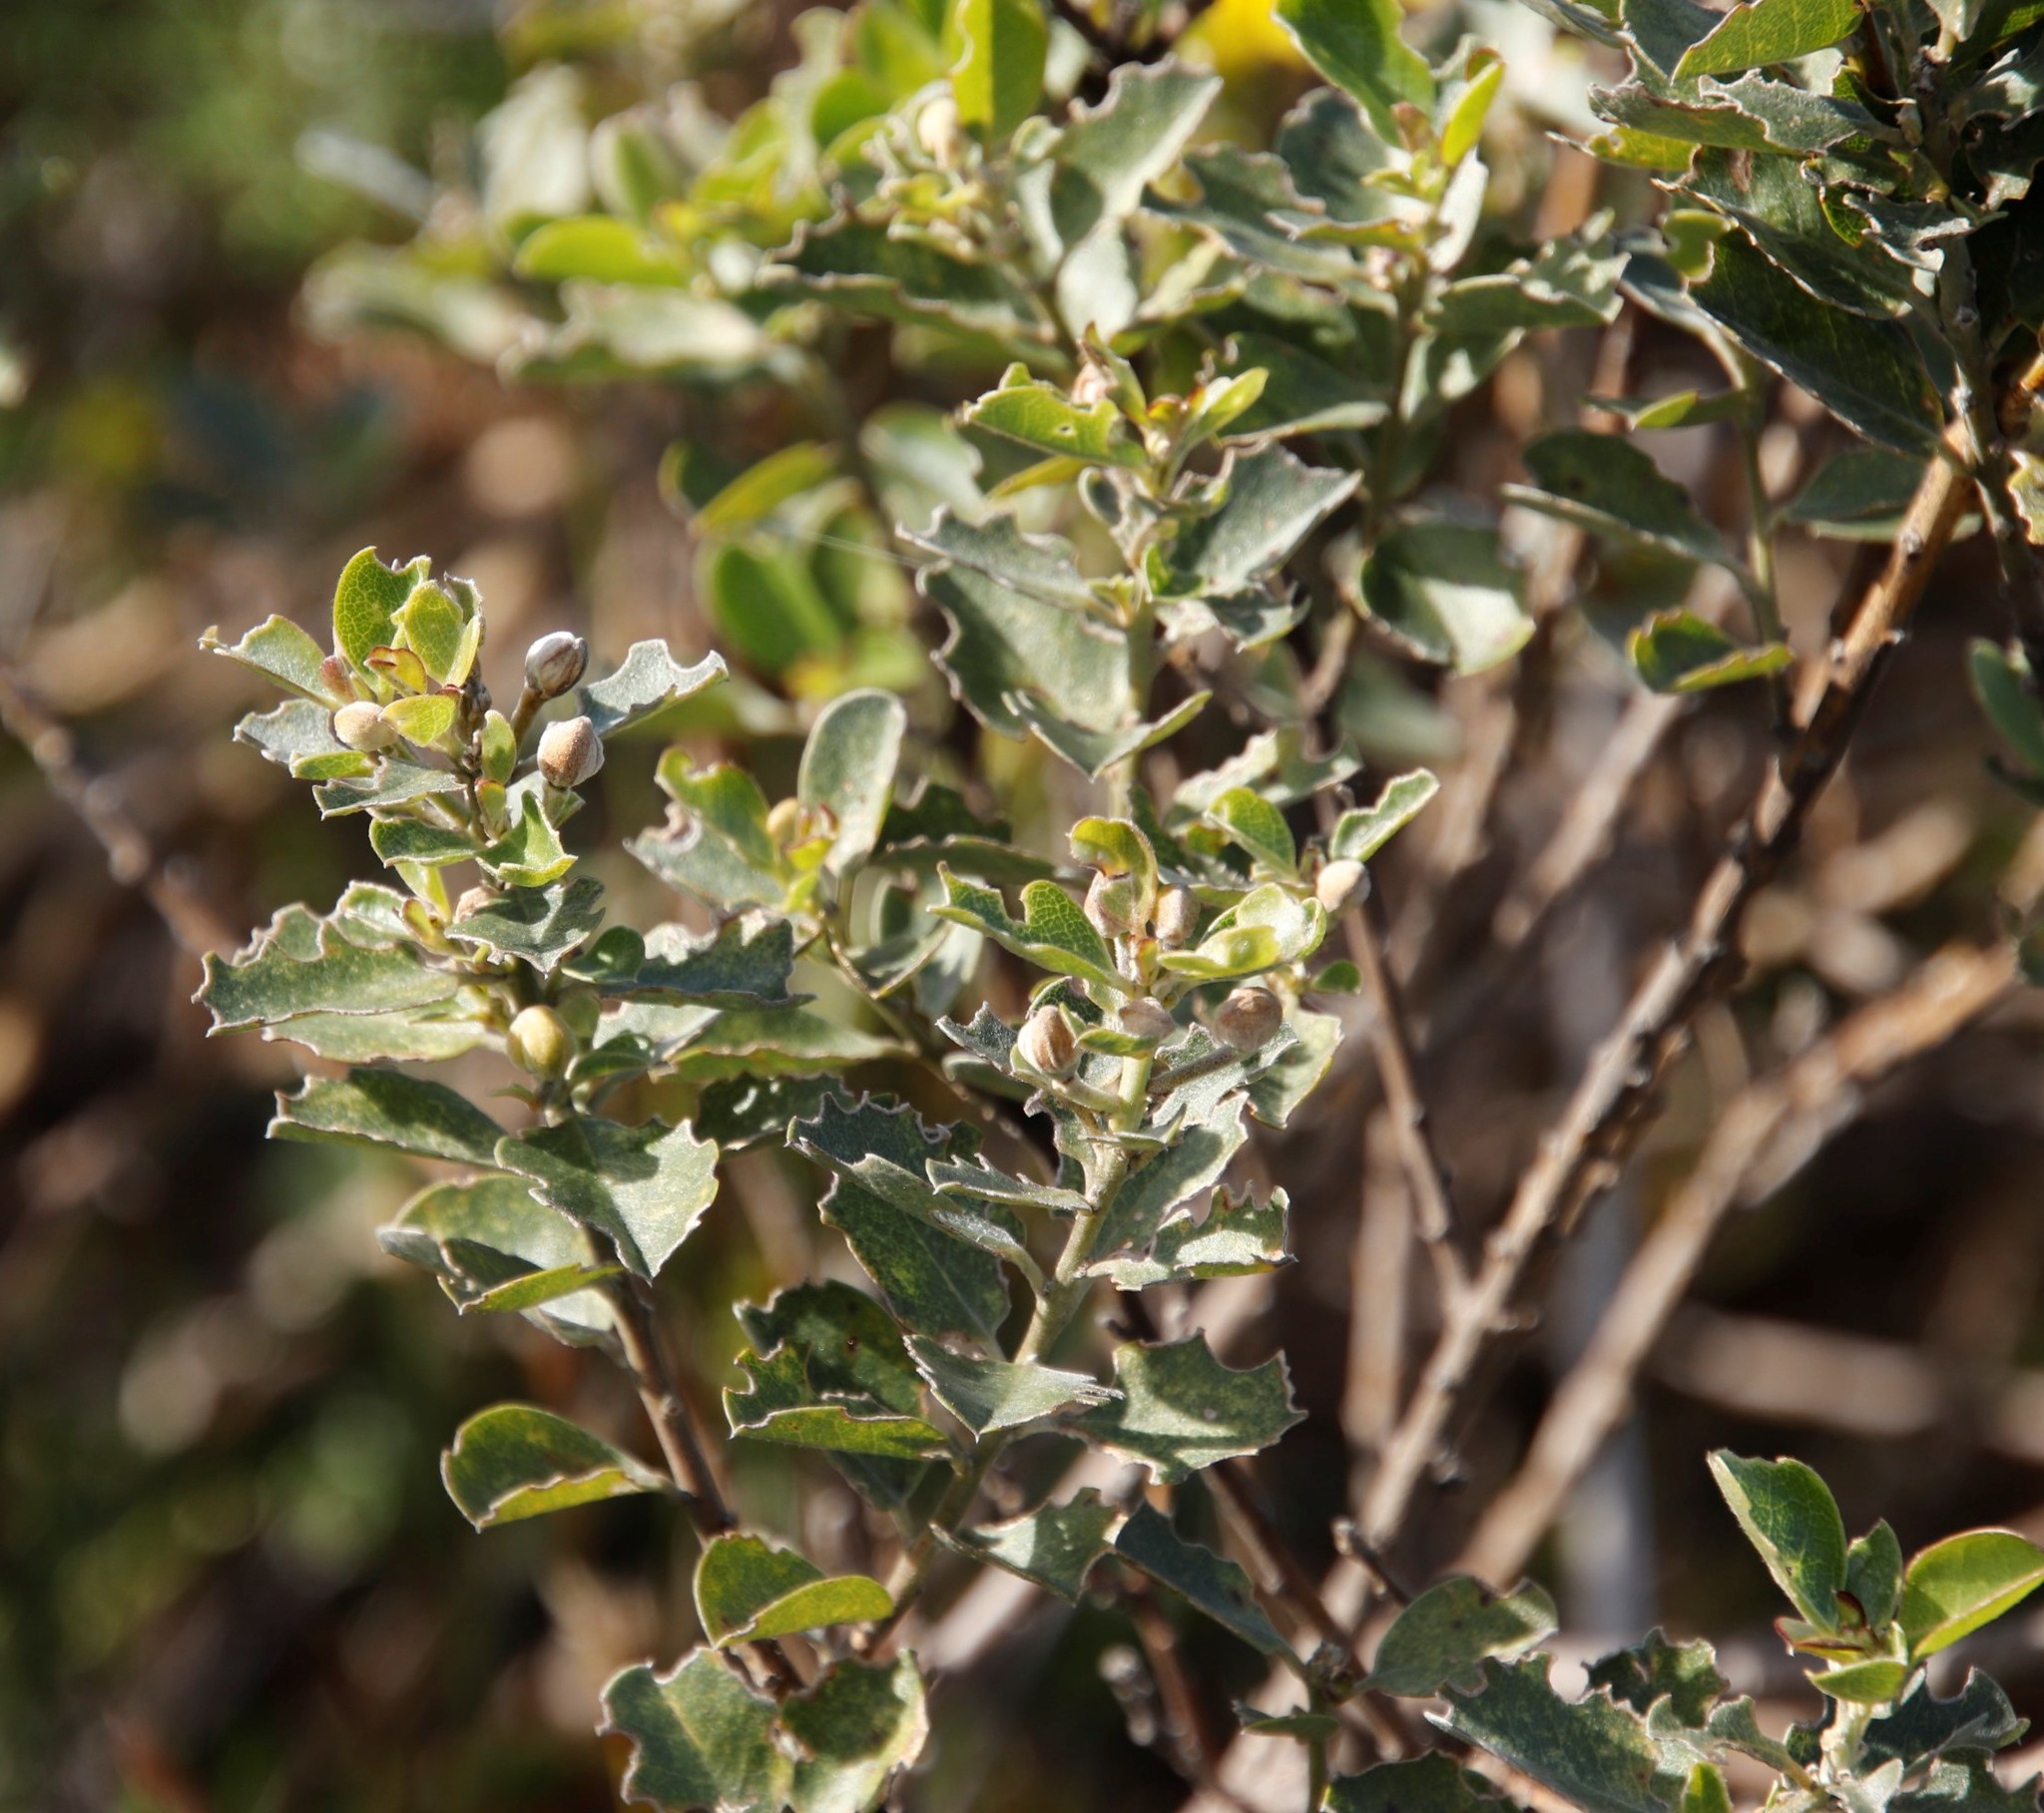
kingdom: Plantae
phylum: Tracheophyta
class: Magnoliopsida
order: Fabales
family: Fabaceae
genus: Podalyria
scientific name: Podalyria calyptrata
